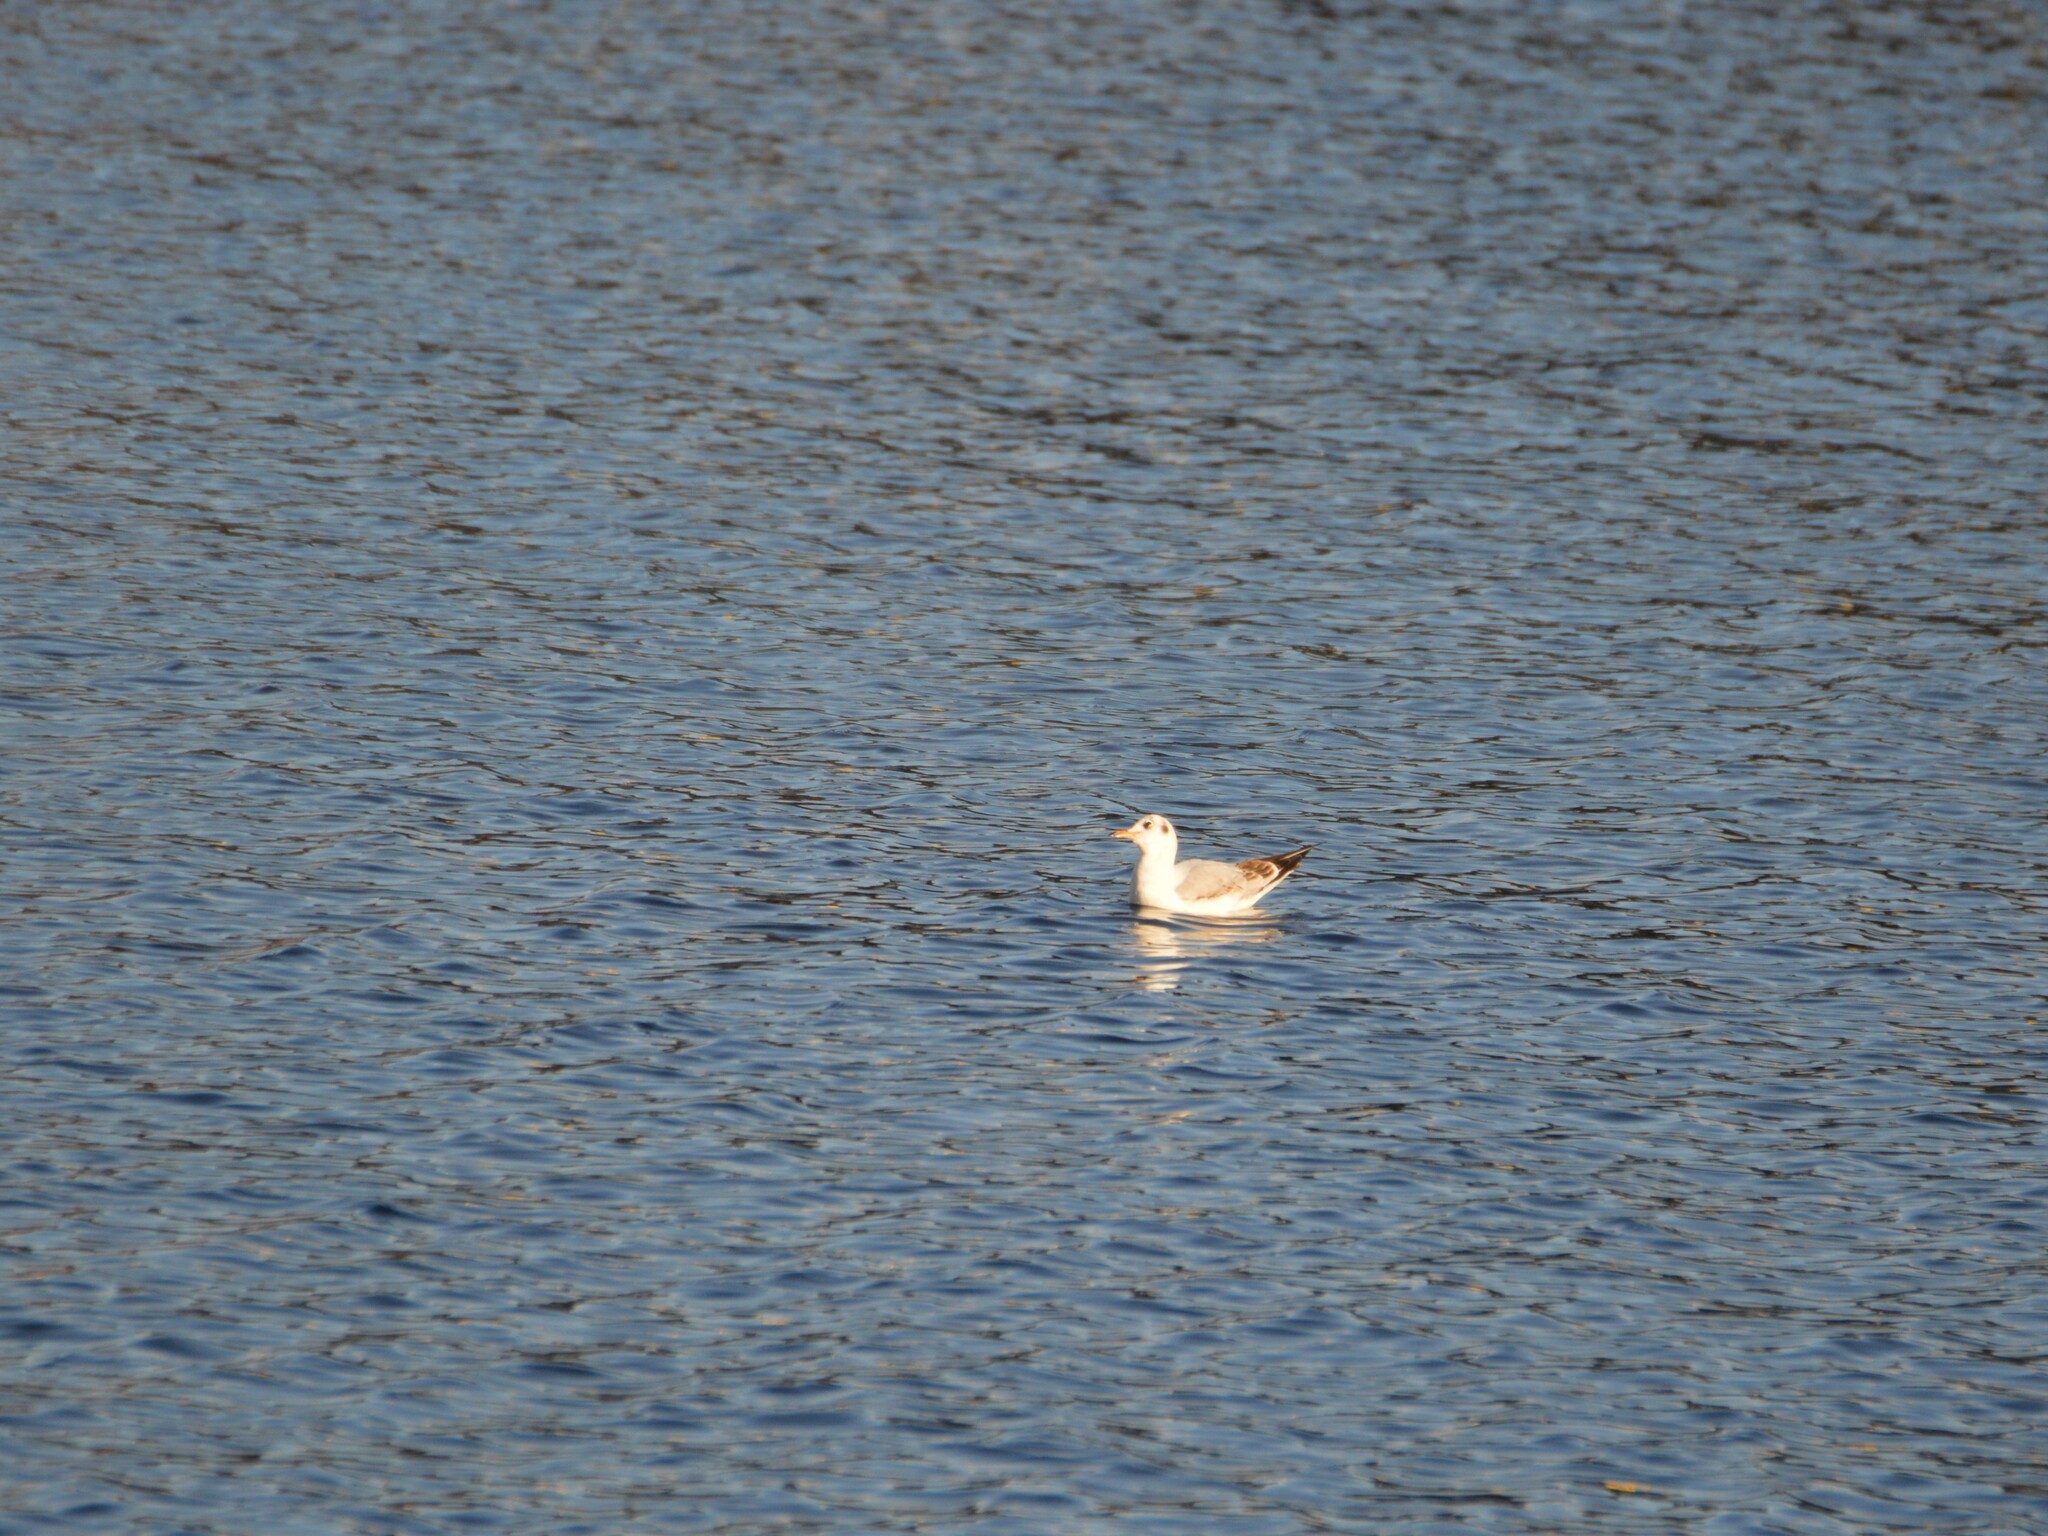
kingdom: Animalia
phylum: Chordata
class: Aves
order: Charadriiformes
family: Laridae
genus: Chroicocephalus
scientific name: Chroicocephalus ridibundus
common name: Black-headed gull
